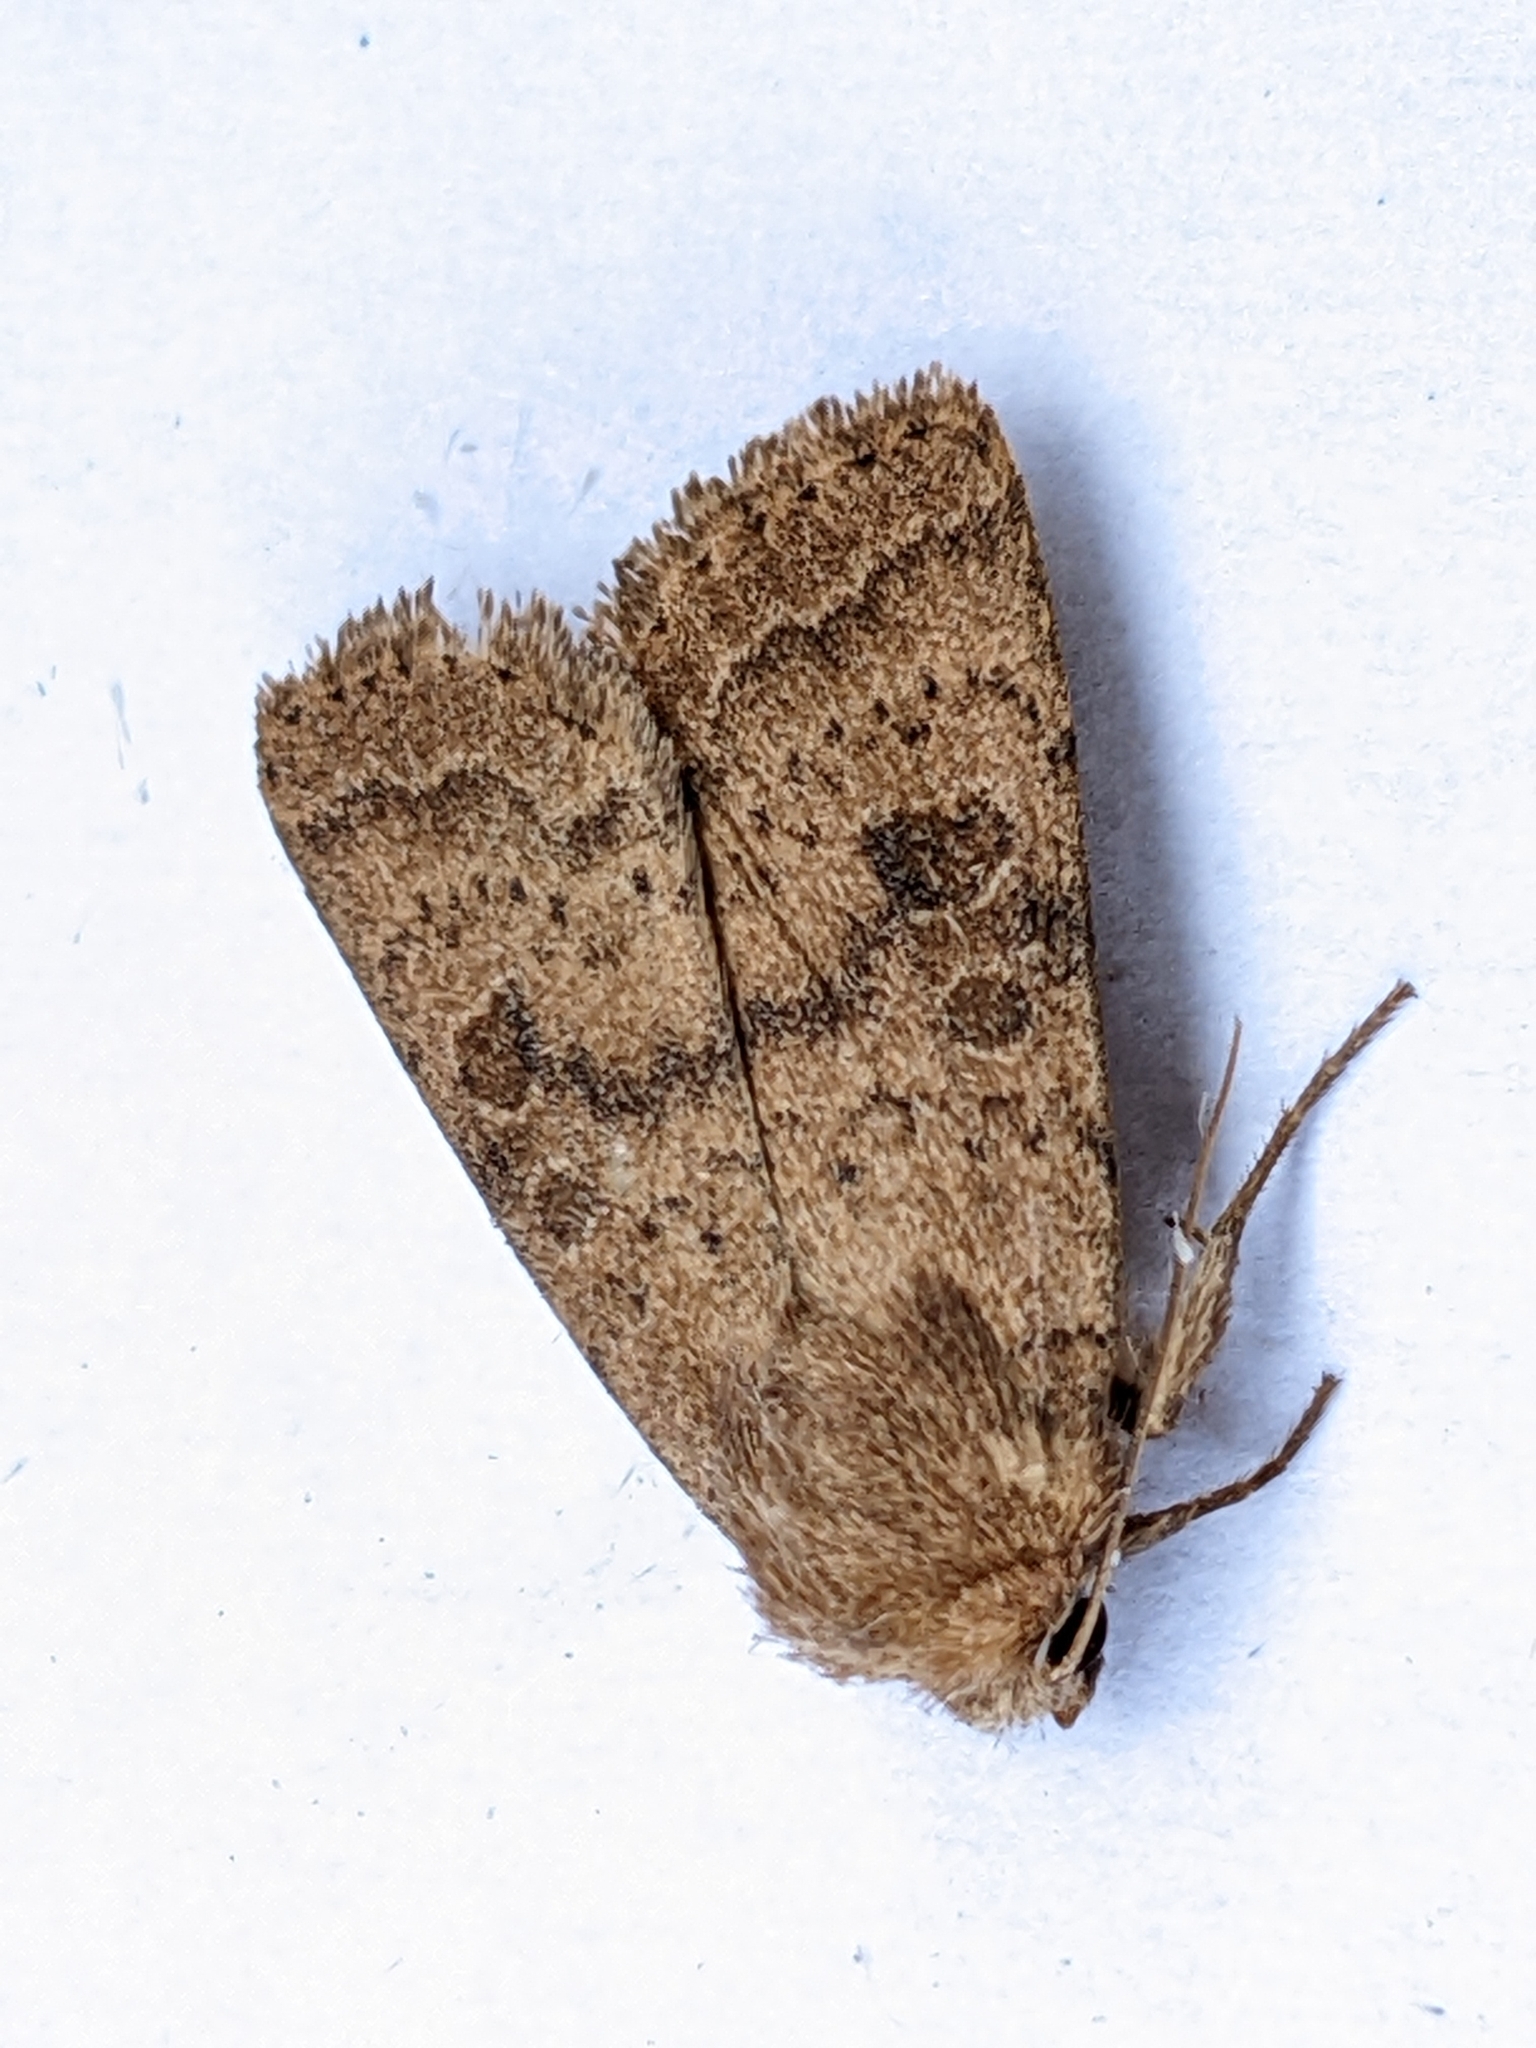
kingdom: Animalia
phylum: Arthropoda
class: Insecta
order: Lepidoptera
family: Noctuidae
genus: Hoplodrina
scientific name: Hoplodrina octogenaria
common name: Uncertain
